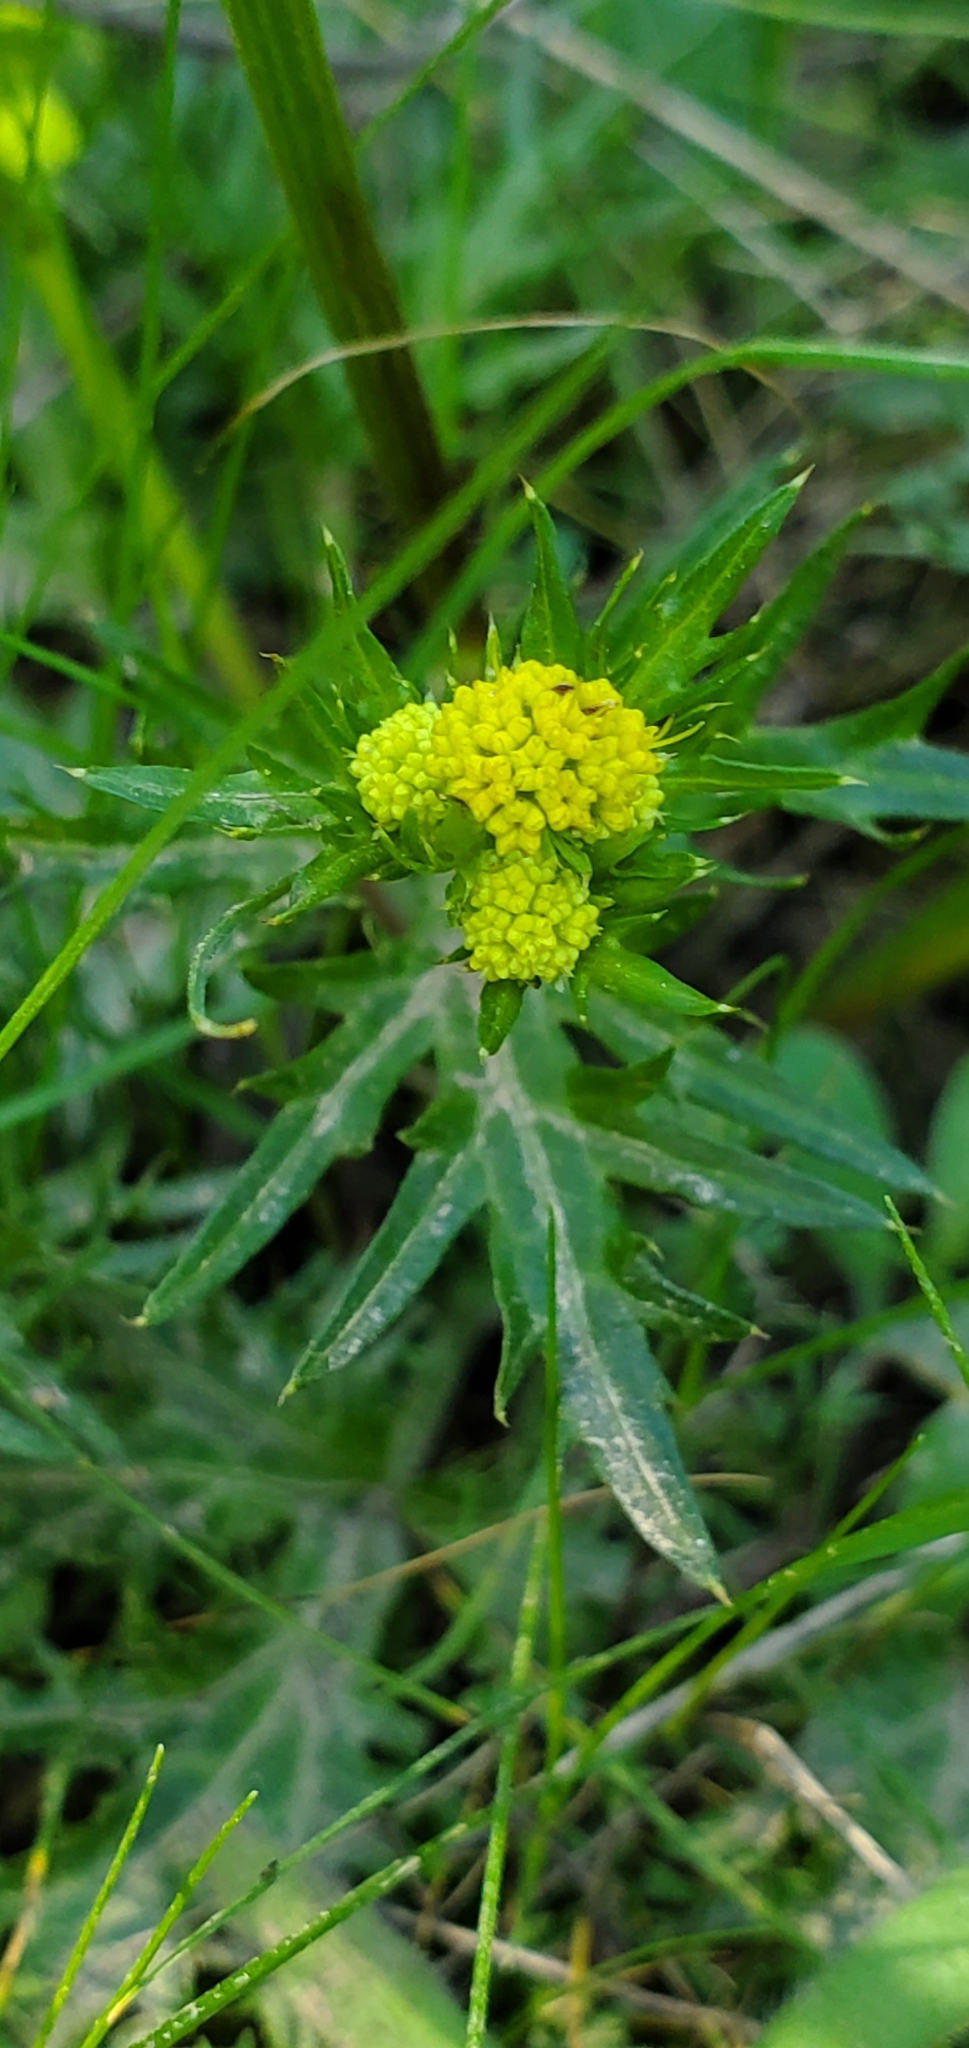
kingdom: Plantae
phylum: Tracheophyta
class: Magnoliopsida
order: Apiales
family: Apiaceae
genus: Sanicula
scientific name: Sanicula laciniata
